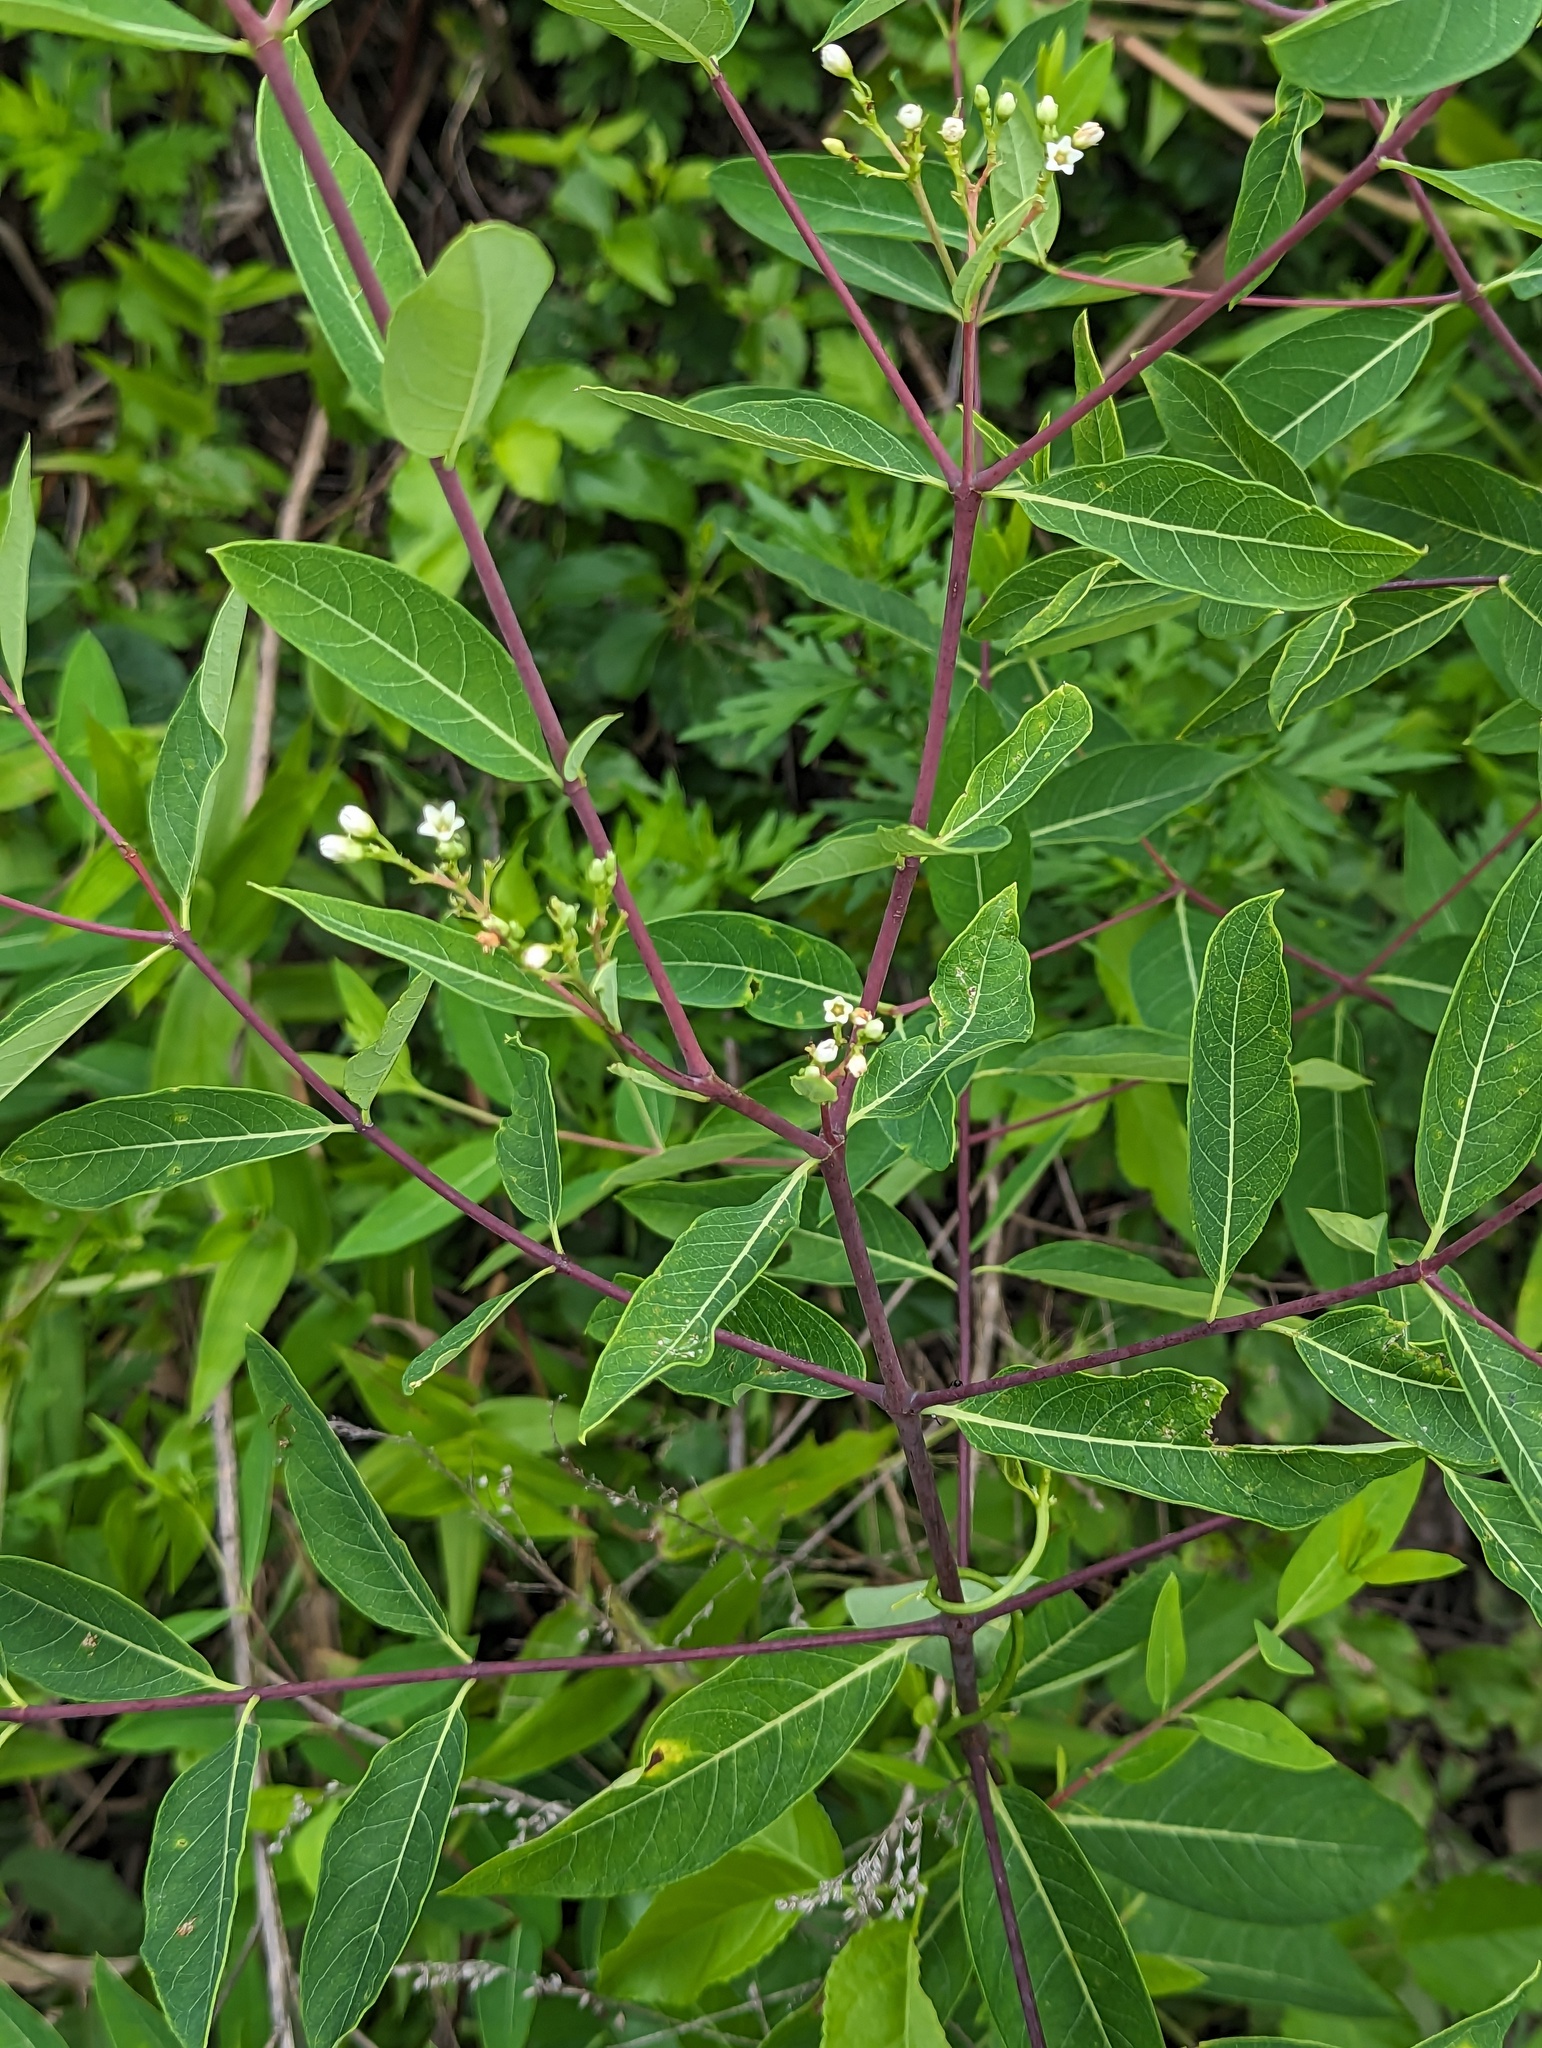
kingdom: Plantae
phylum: Tracheophyta
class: Magnoliopsida
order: Gentianales
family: Apocynaceae
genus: Apocynum
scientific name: Apocynum cannabinum
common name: Hemp dogbane
